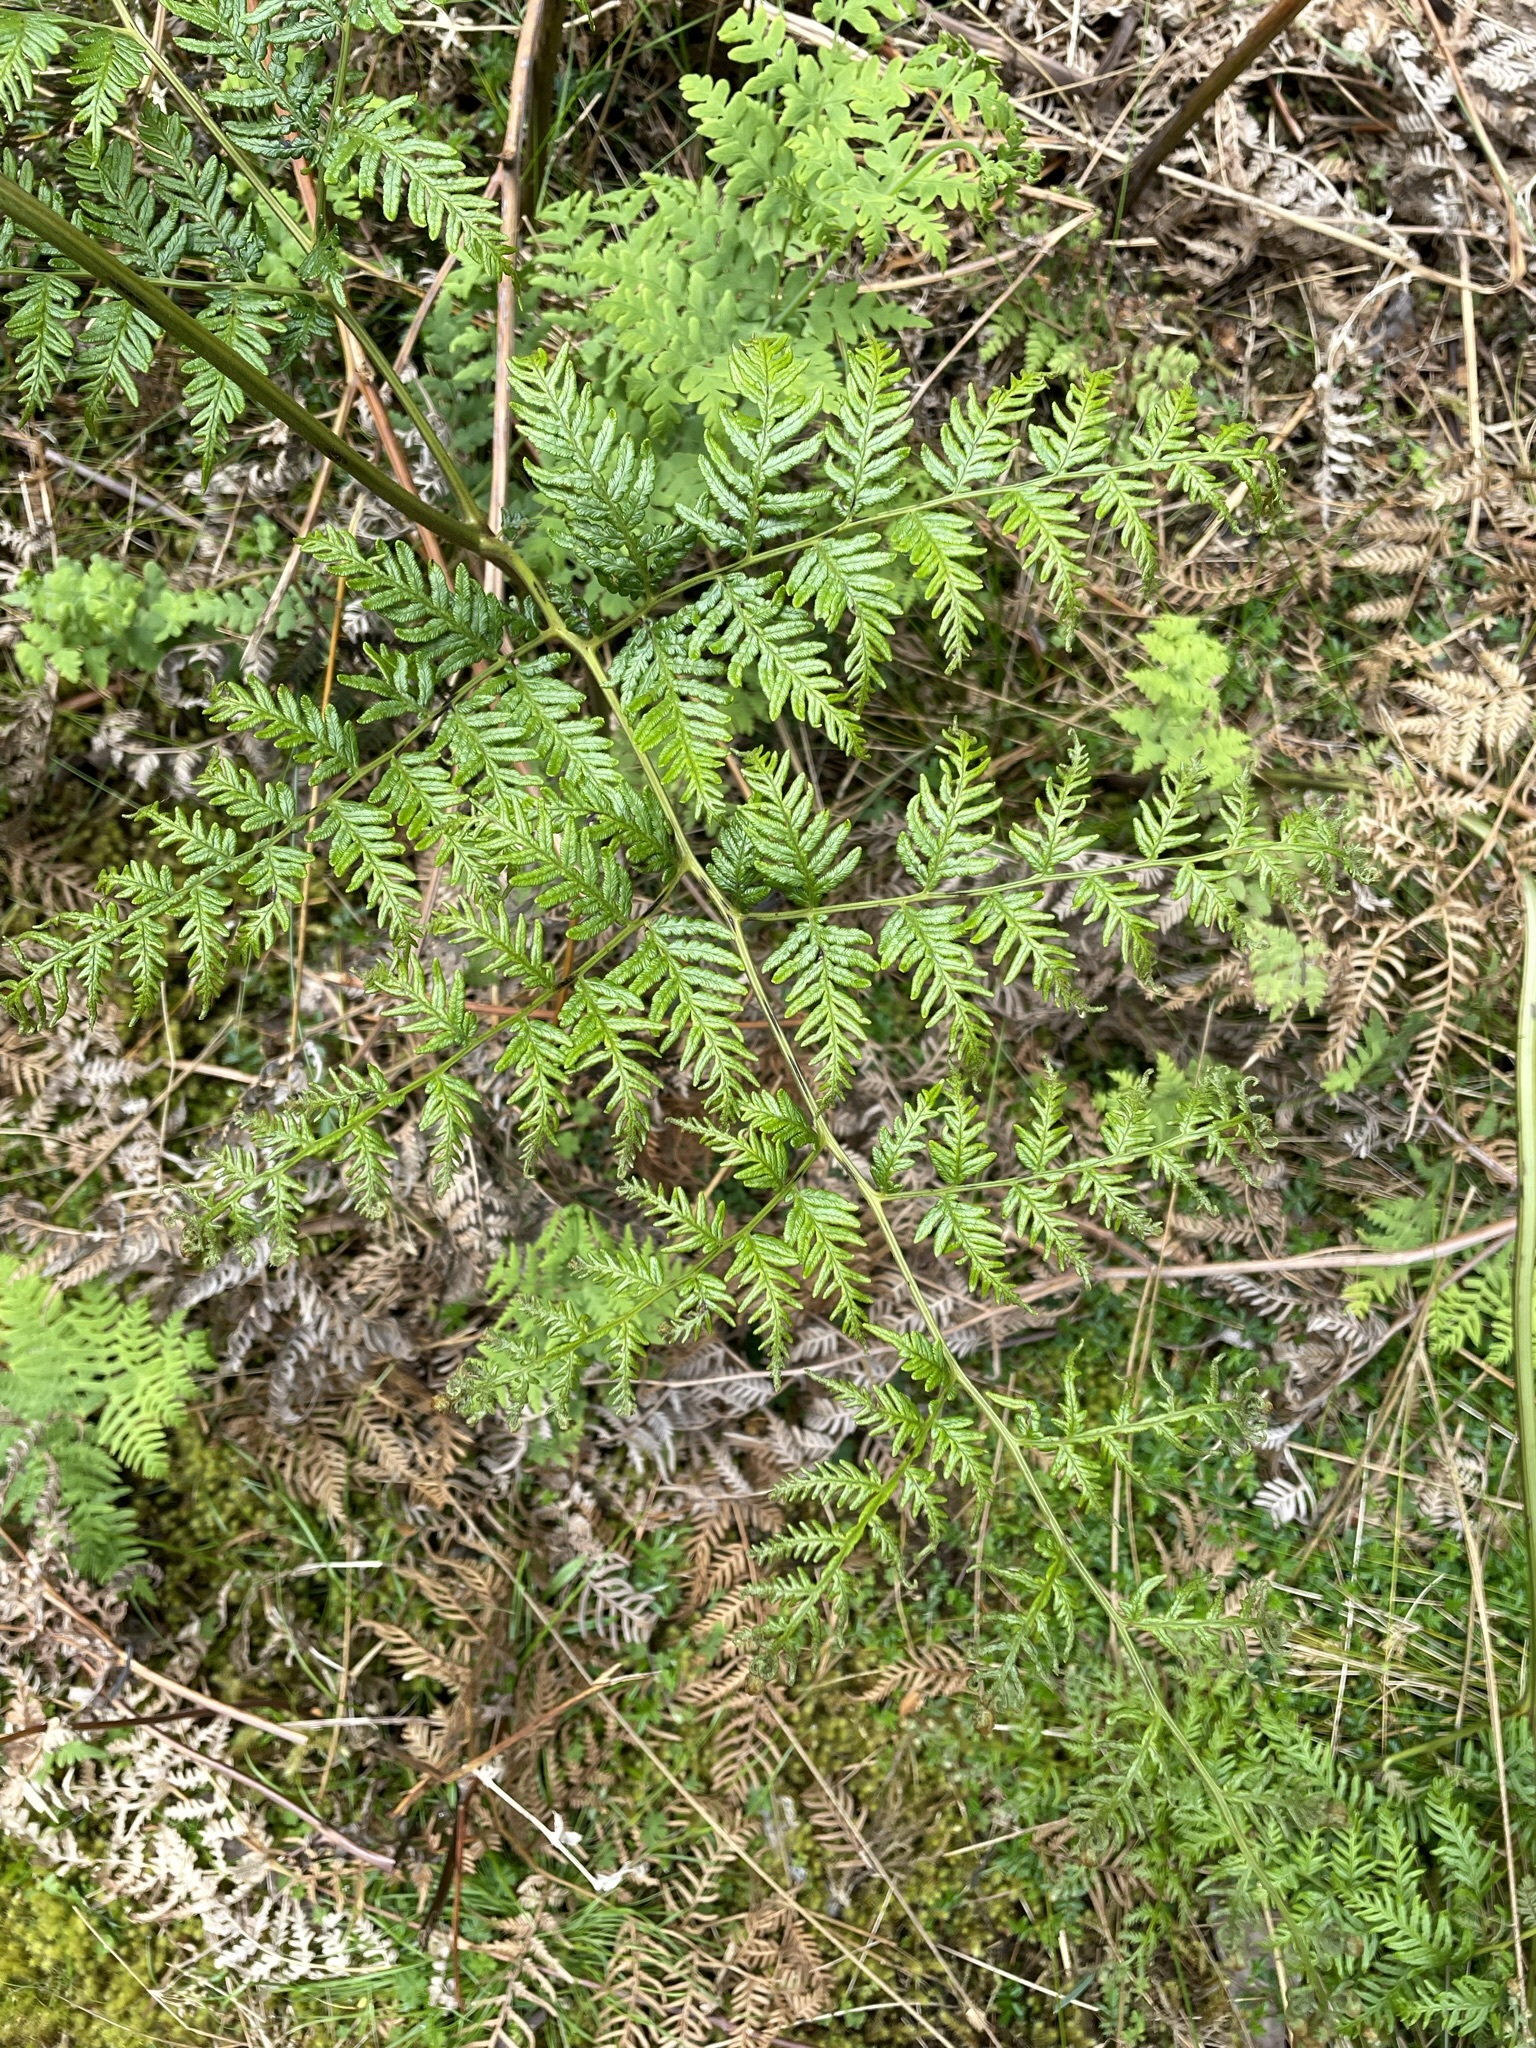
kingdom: Plantae
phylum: Tracheophyta
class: Polypodiopsida
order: Polypodiales
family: Dennstaedtiaceae
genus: Pteridium
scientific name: Pteridium esculentum
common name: Bracken fern
